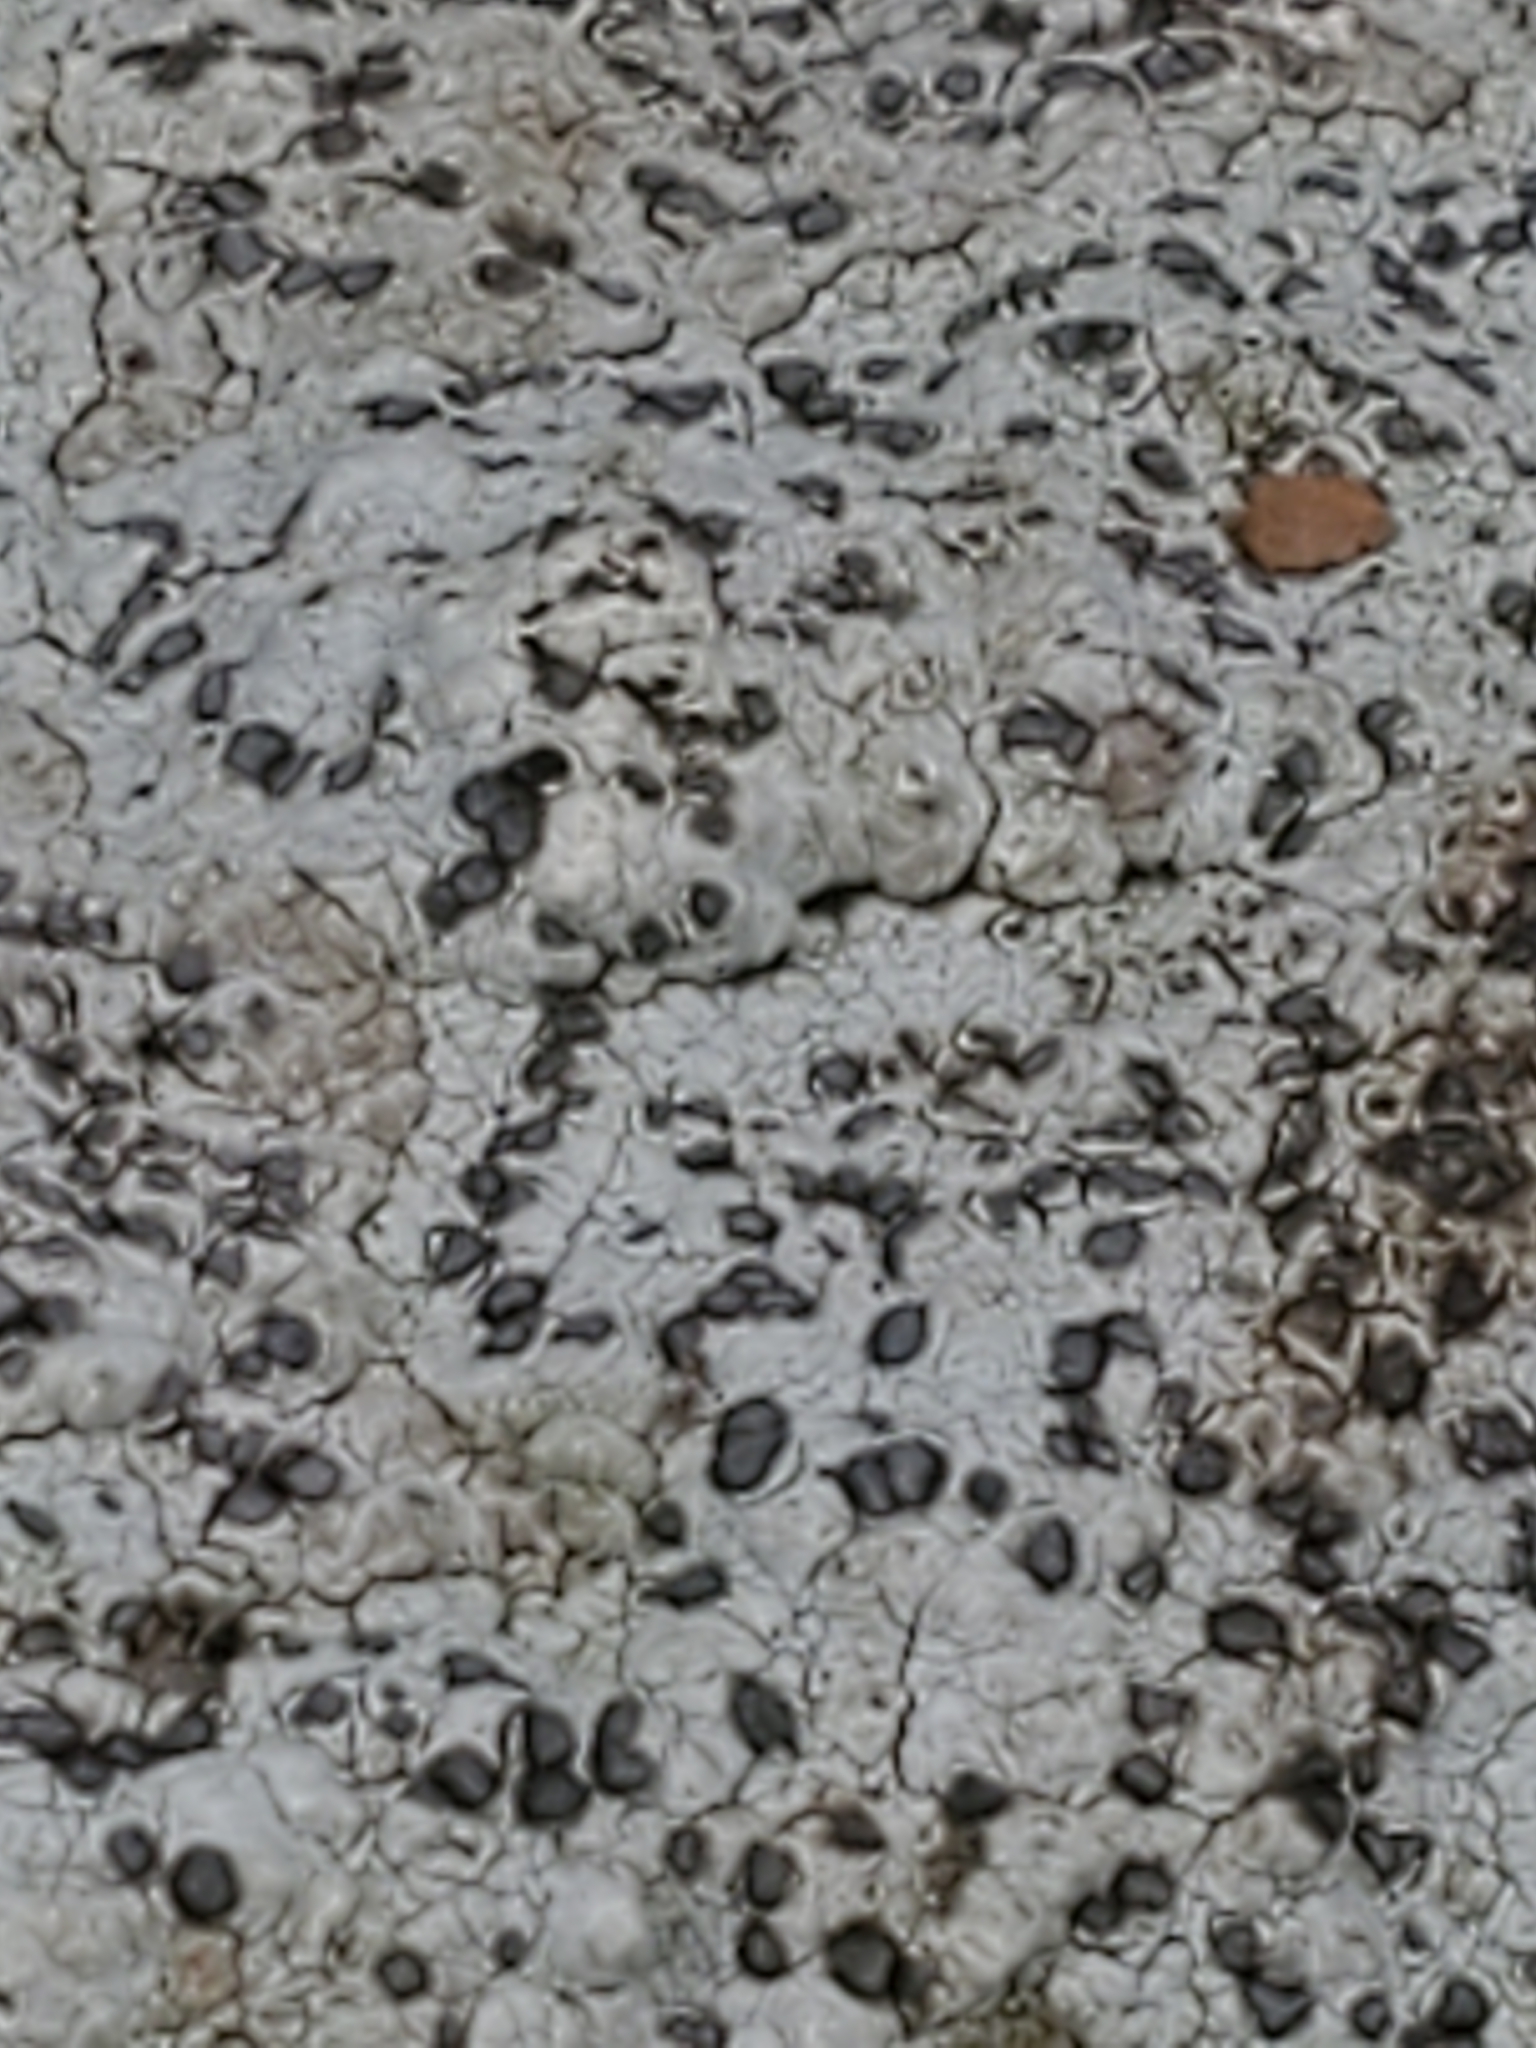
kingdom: Fungi
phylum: Ascomycota
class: Lecanoromycetes
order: Lecideales
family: Lecideaceae
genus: Porpidia
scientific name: Porpidia albocaerulescens
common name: Smokey-eyed boulder lichen
